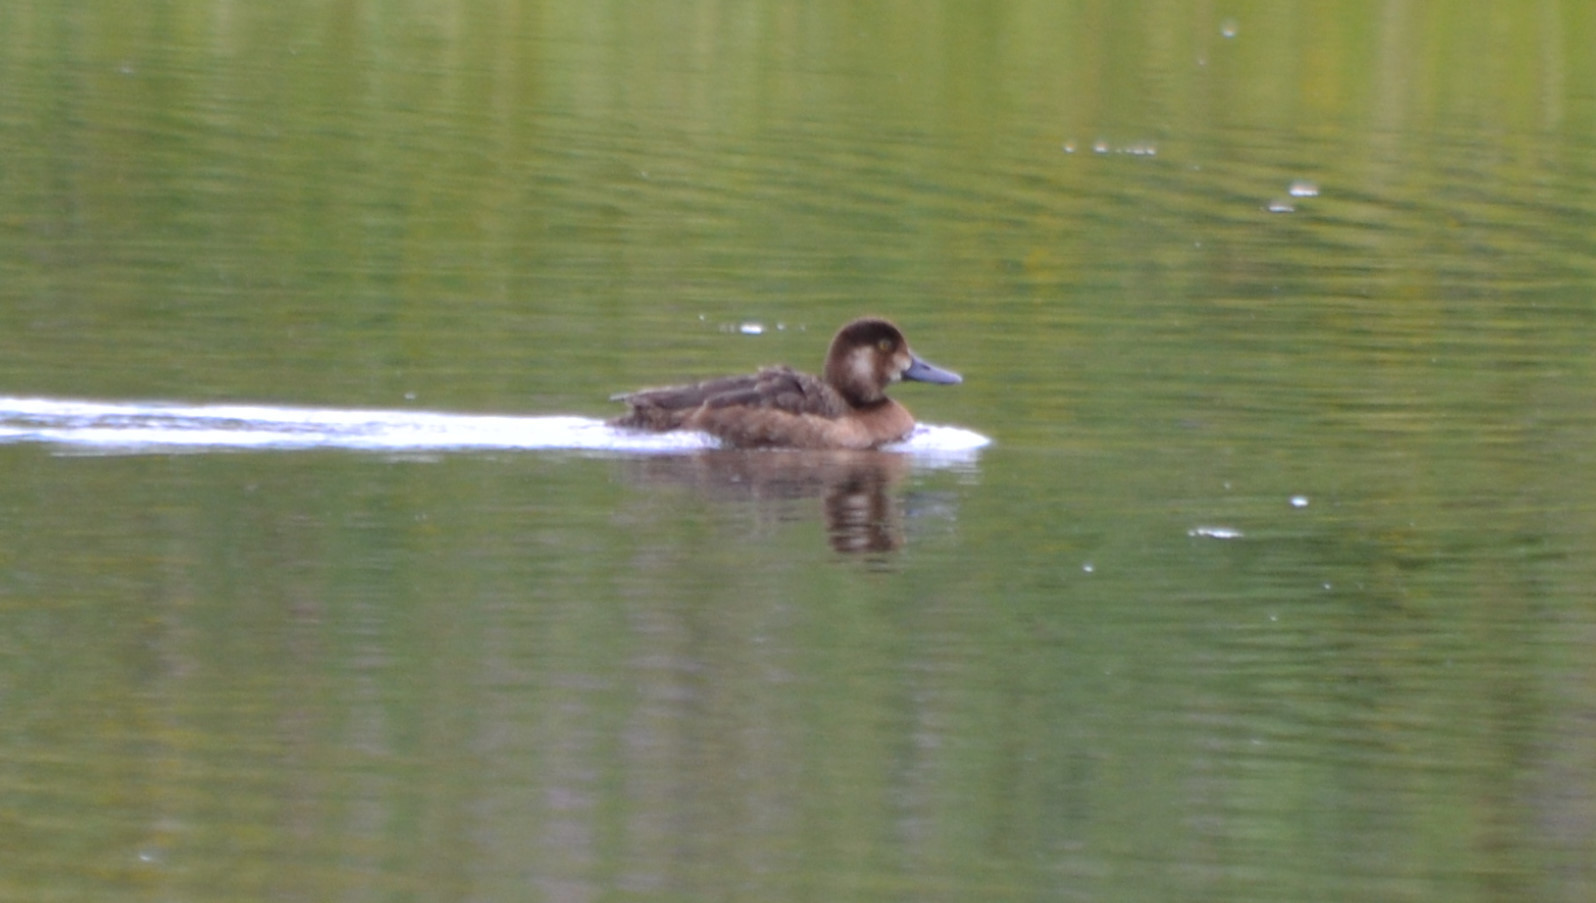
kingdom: Animalia
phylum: Chordata
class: Aves
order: Anseriformes
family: Anatidae
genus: Aythya
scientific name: Aythya marila
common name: Greater scaup
